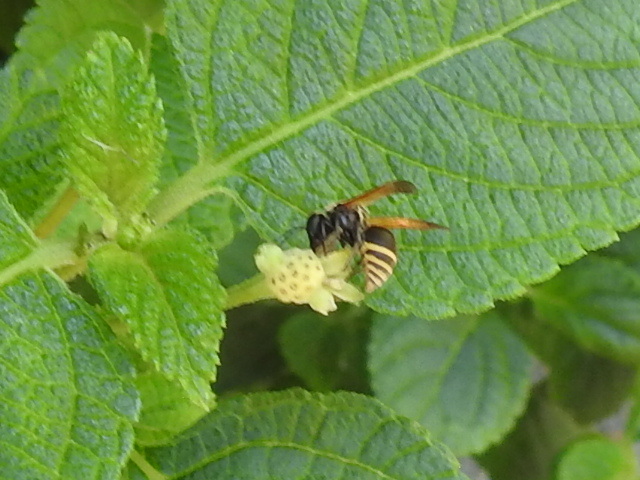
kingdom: Animalia
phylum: Arthropoda
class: Insecta
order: Hymenoptera
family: Vespidae
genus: Brachygastra
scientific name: Brachygastra mellifica
